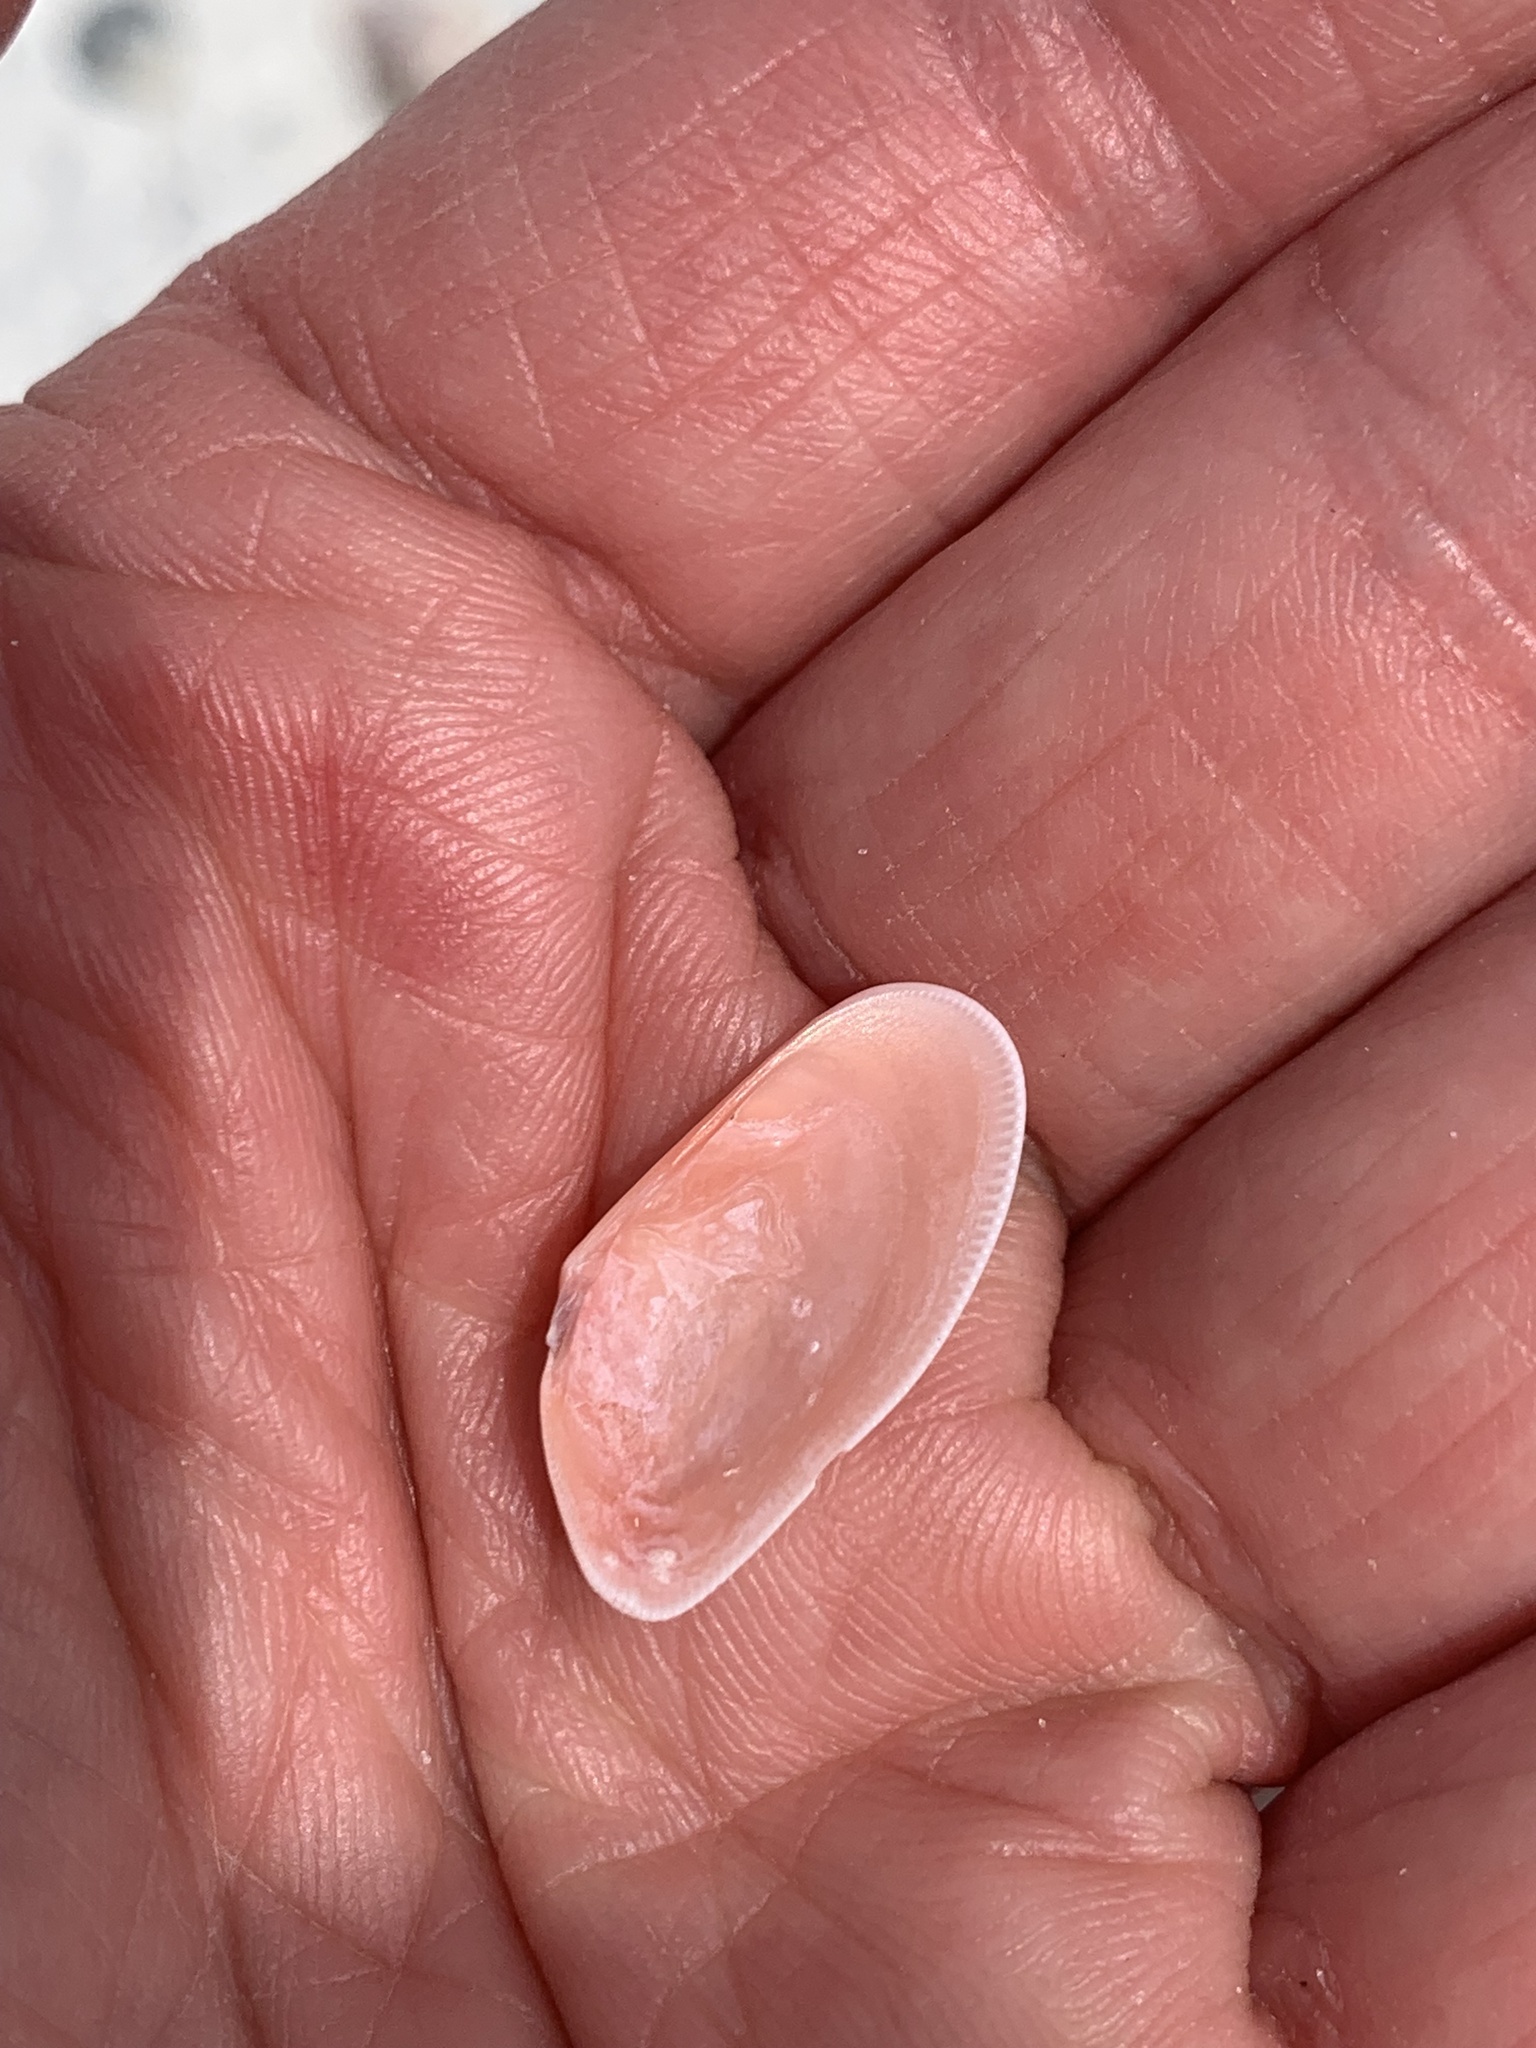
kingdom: Animalia
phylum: Mollusca
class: Bivalvia
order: Cardiida
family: Donacidae
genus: Donax
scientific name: Donax variabilis
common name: Butterfly shell
